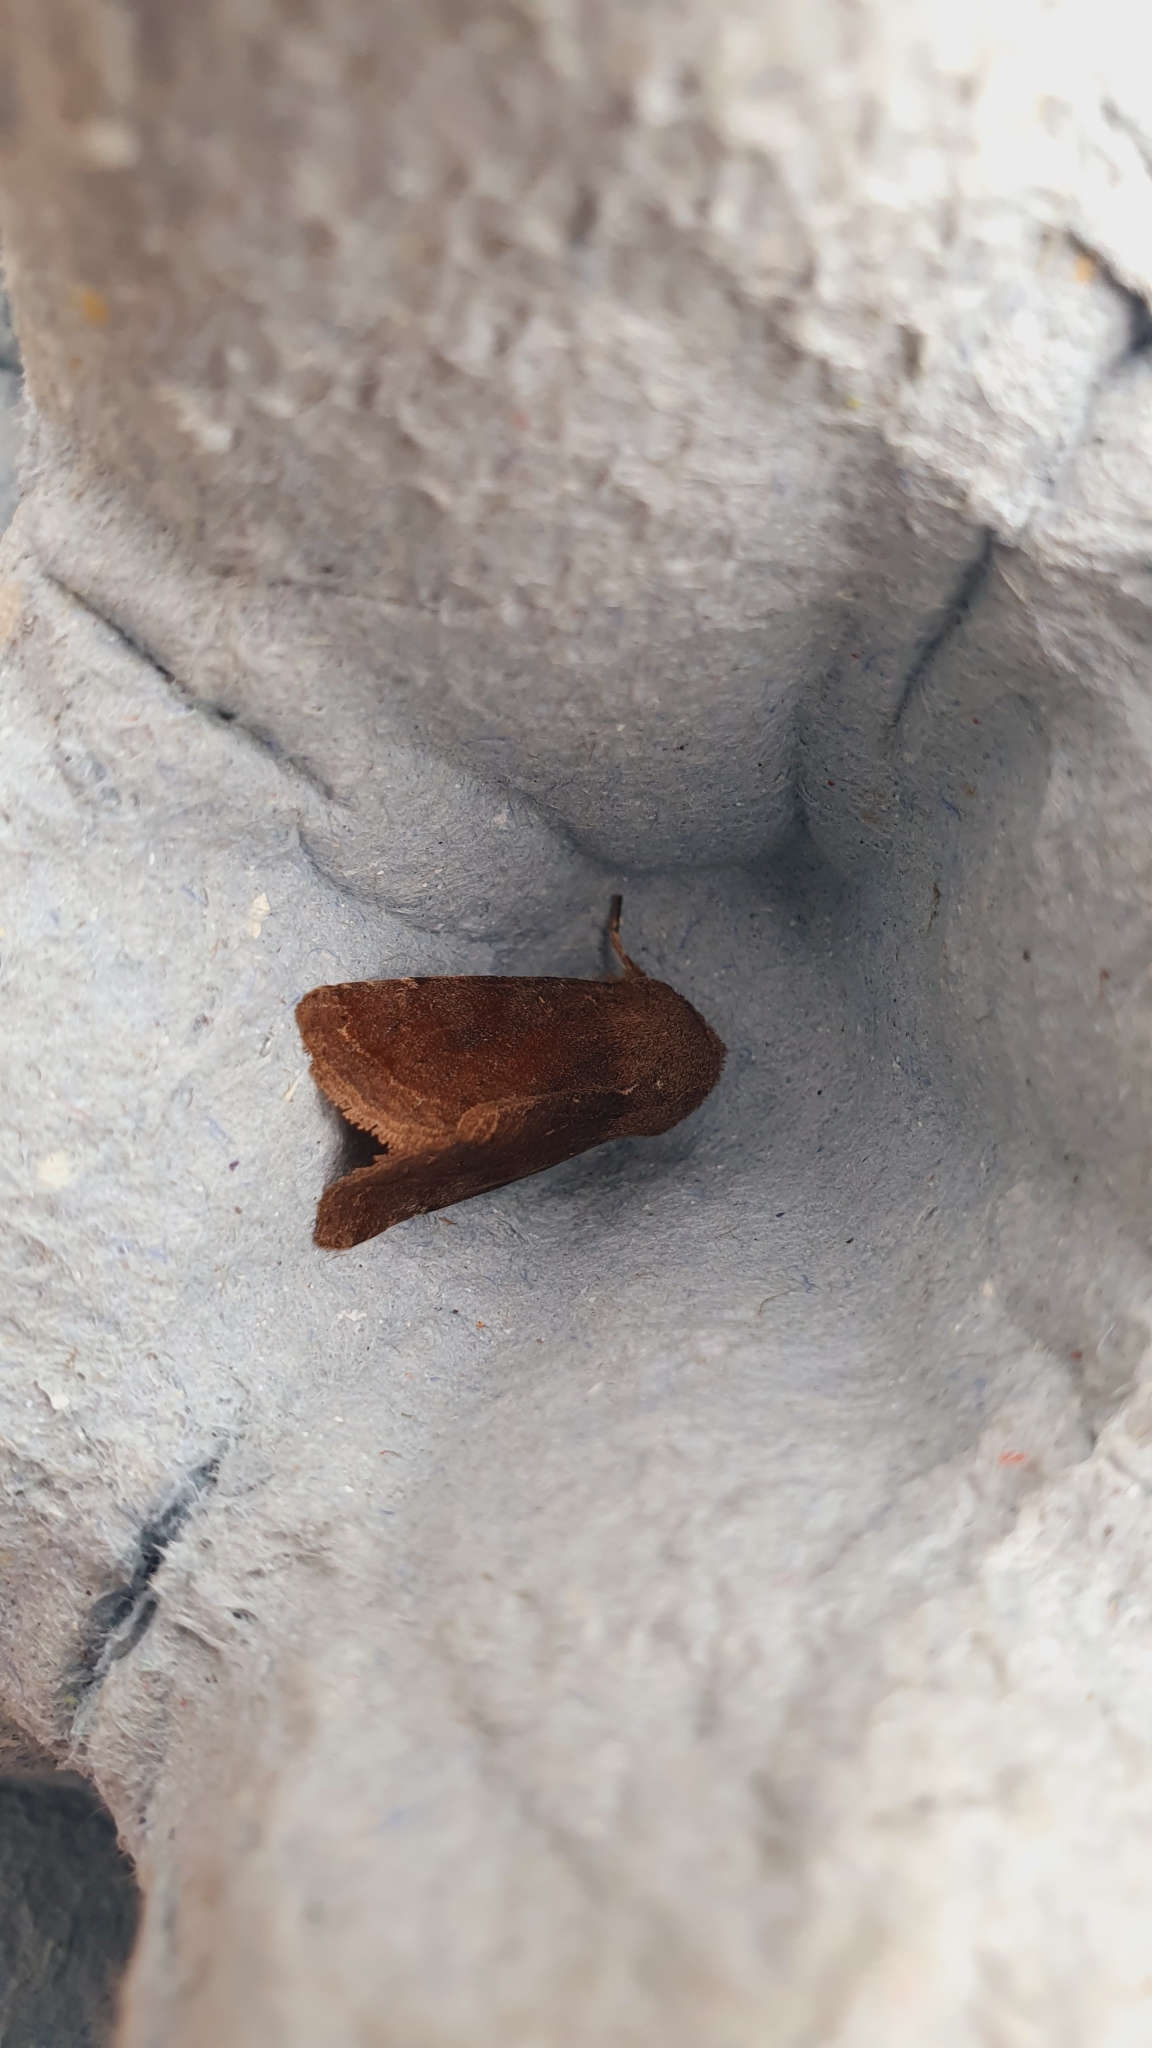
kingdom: Animalia
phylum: Arthropoda
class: Insecta
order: Lepidoptera
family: Noctuidae
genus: Orthosia
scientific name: Orthosia incerta
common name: Clouded drab
